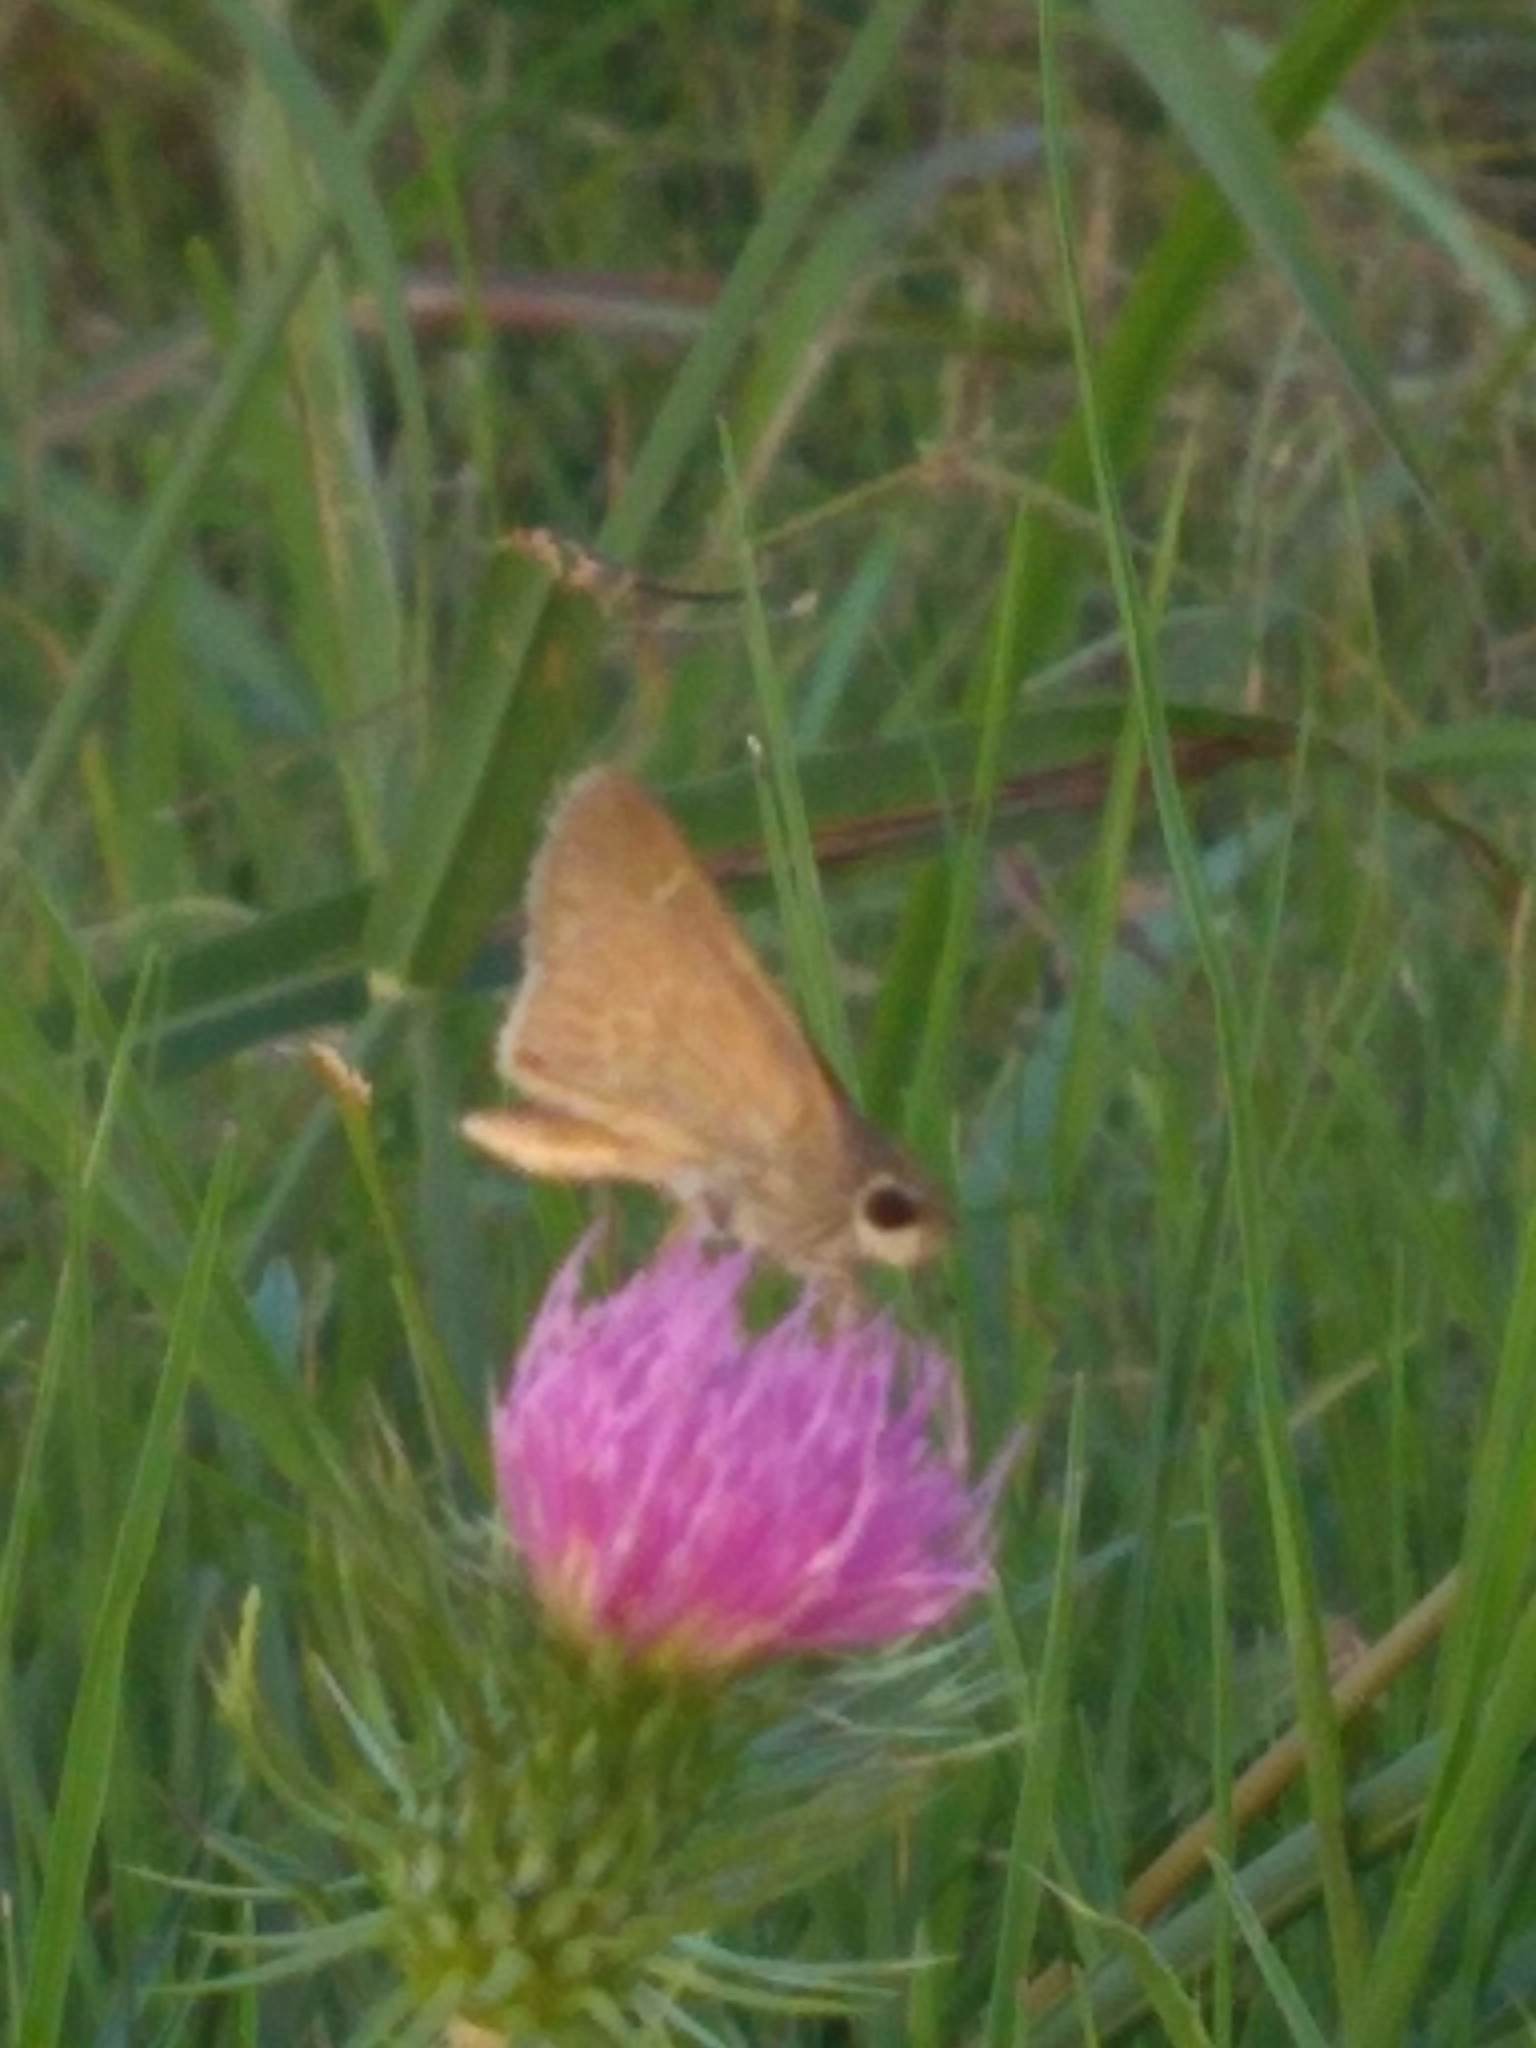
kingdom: Animalia
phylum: Arthropoda
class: Insecta
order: Lepidoptera
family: Hesperiidae
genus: Lerodea
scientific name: Lerodea eufala
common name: Eufala skipper
